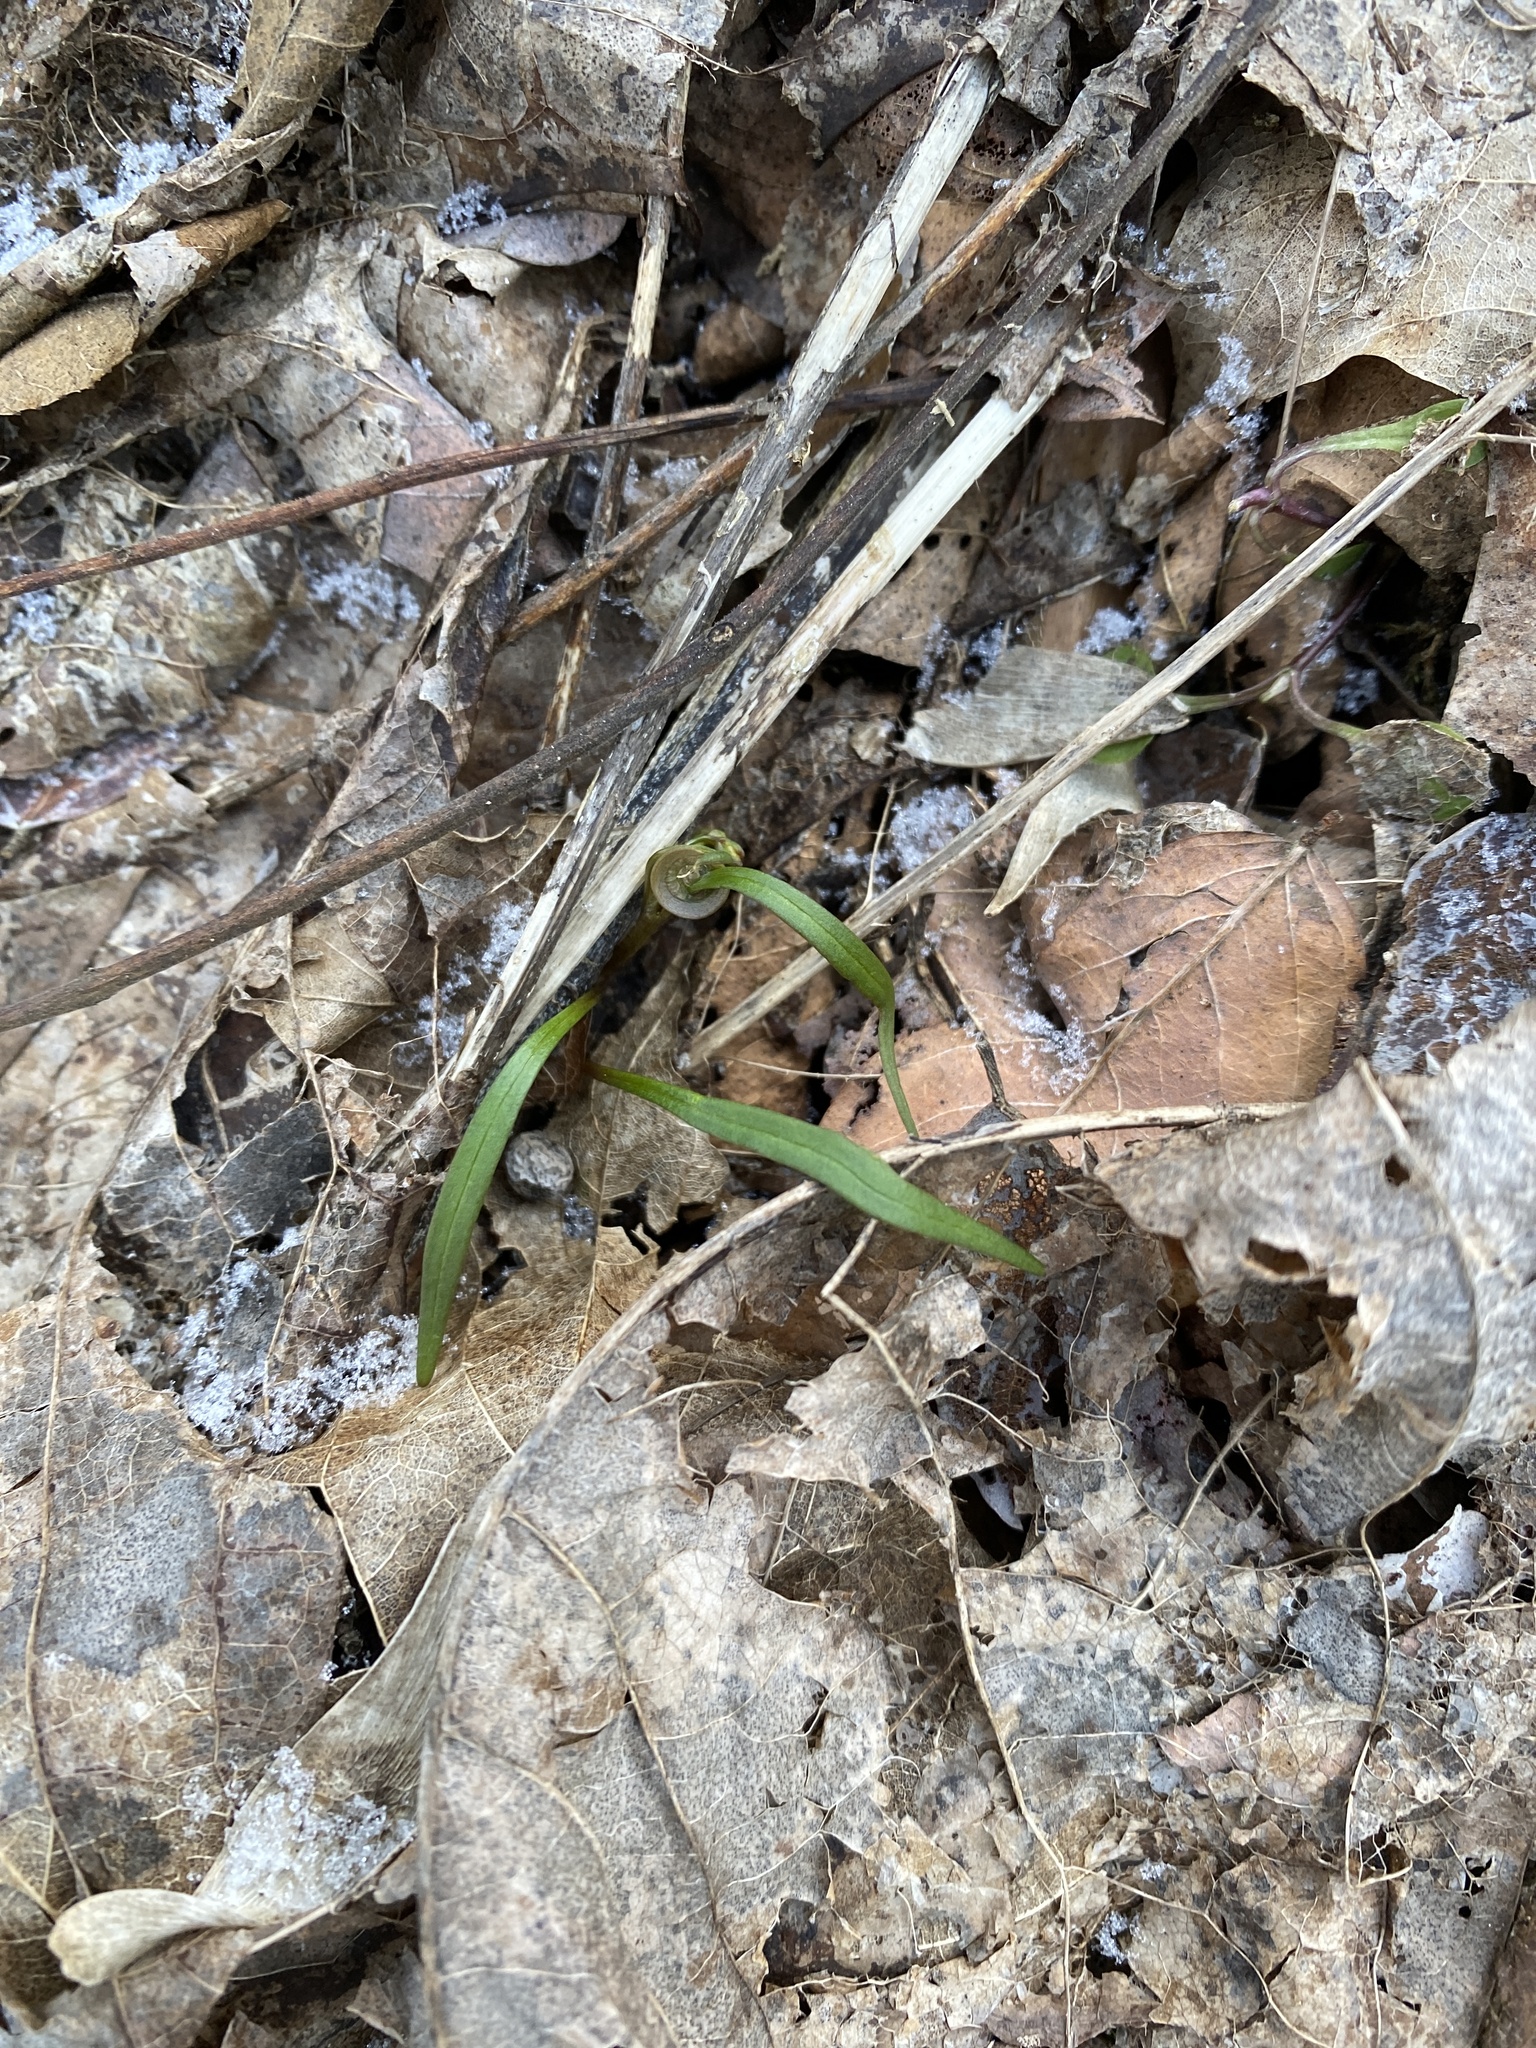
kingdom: Plantae
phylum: Tracheophyta
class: Magnoliopsida
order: Caryophyllales
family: Montiaceae
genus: Claytonia
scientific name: Claytonia virginica
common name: Virginia springbeauty
